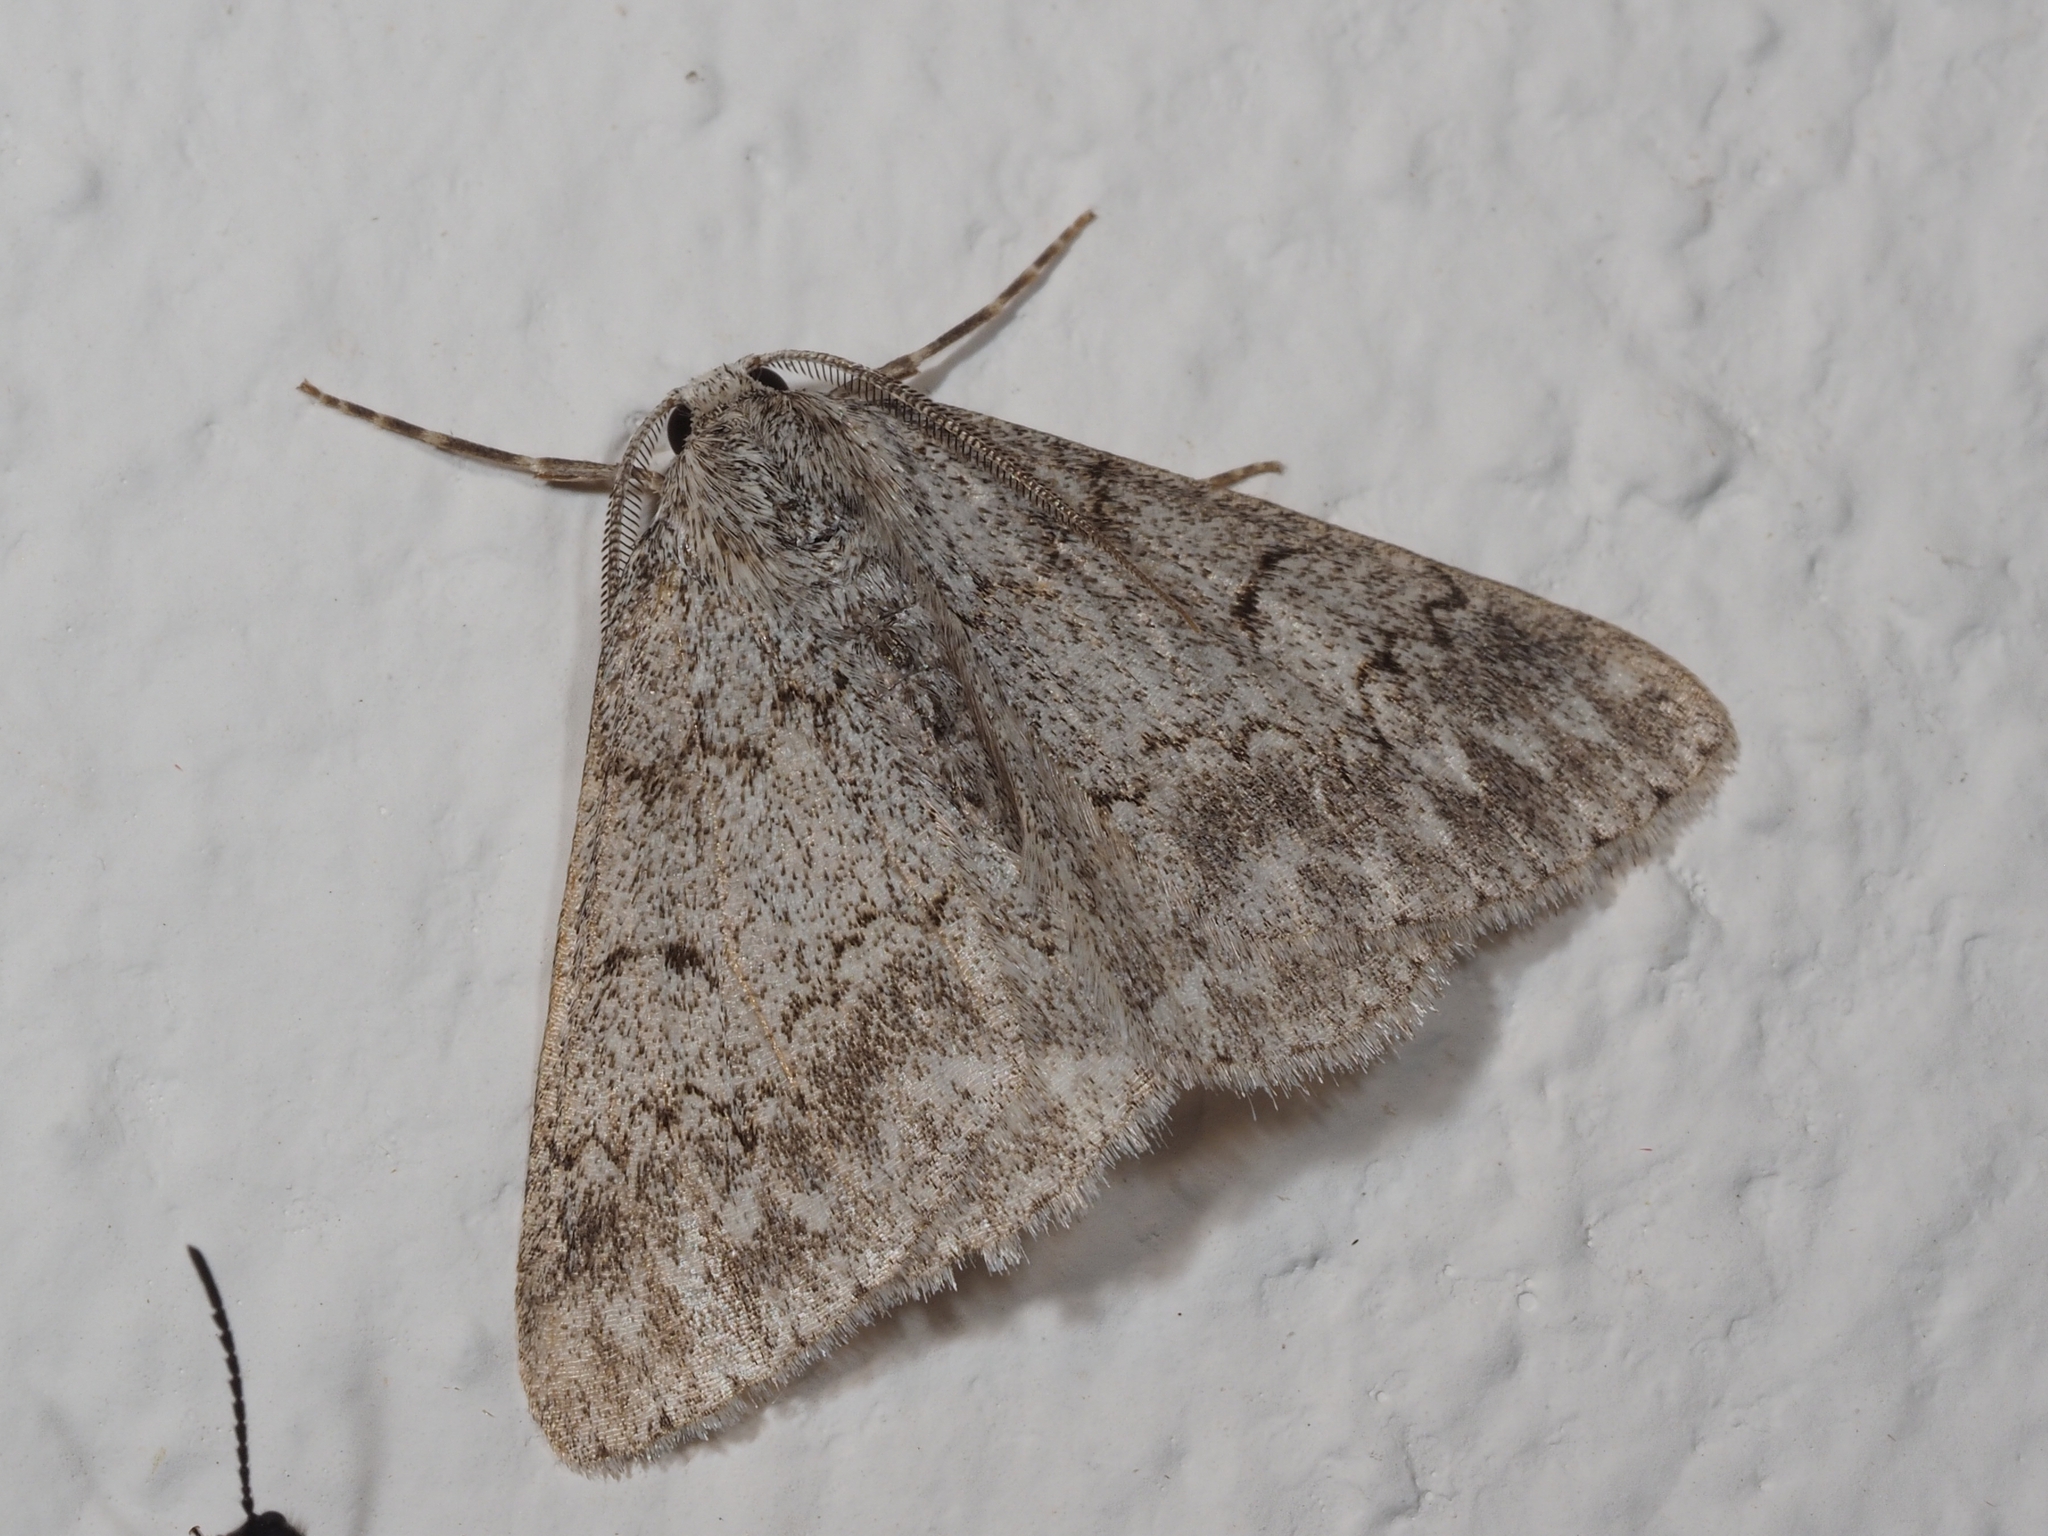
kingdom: Animalia
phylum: Arthropoda
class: Insecta
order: Lepidoptera
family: Geometridae
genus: Pseudoterpna
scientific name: Pseudoterpna coronillaria
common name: Jersey emerald
